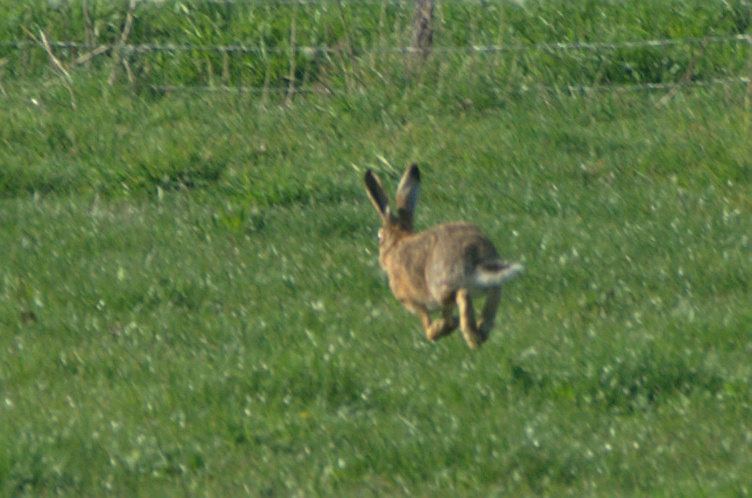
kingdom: Animalia
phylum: Chordata
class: Mammalia
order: Lagomorpha
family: Leporidae
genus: Lepus
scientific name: Lepus europaeus
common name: European hare
